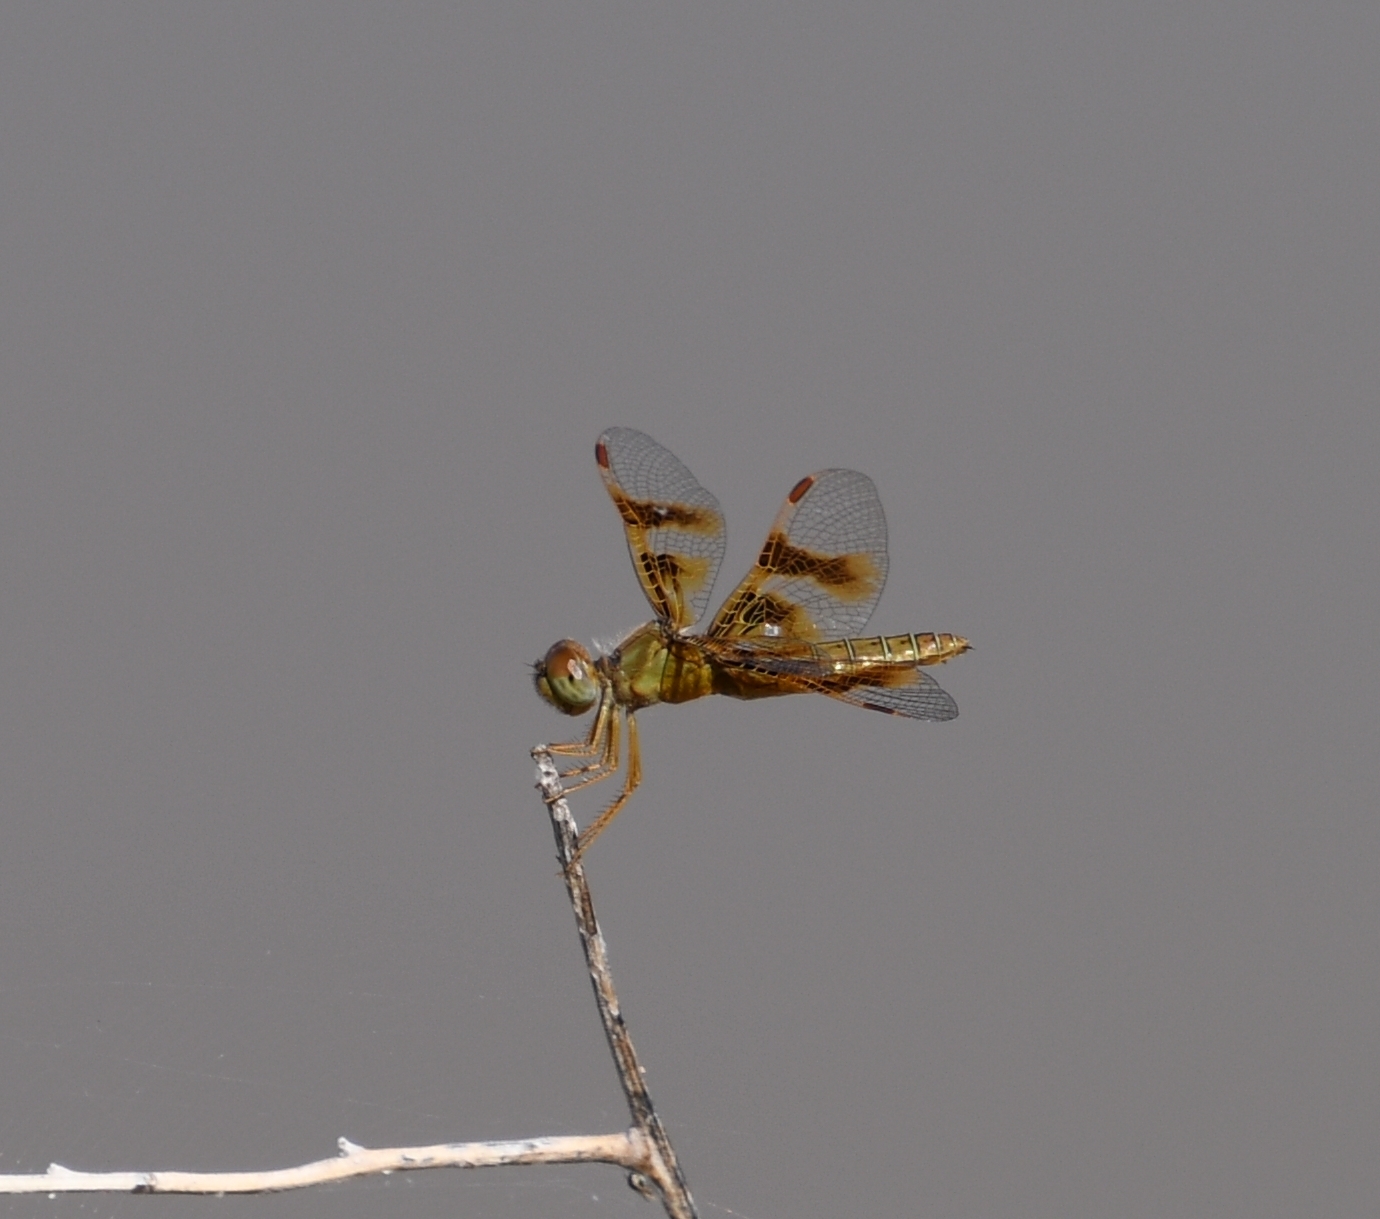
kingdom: Animalia
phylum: Arthropoda
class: Insecta
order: Odonata
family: Libellulidae
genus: Perithemis
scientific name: Perithemis intensa
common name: Mexican amberwing
